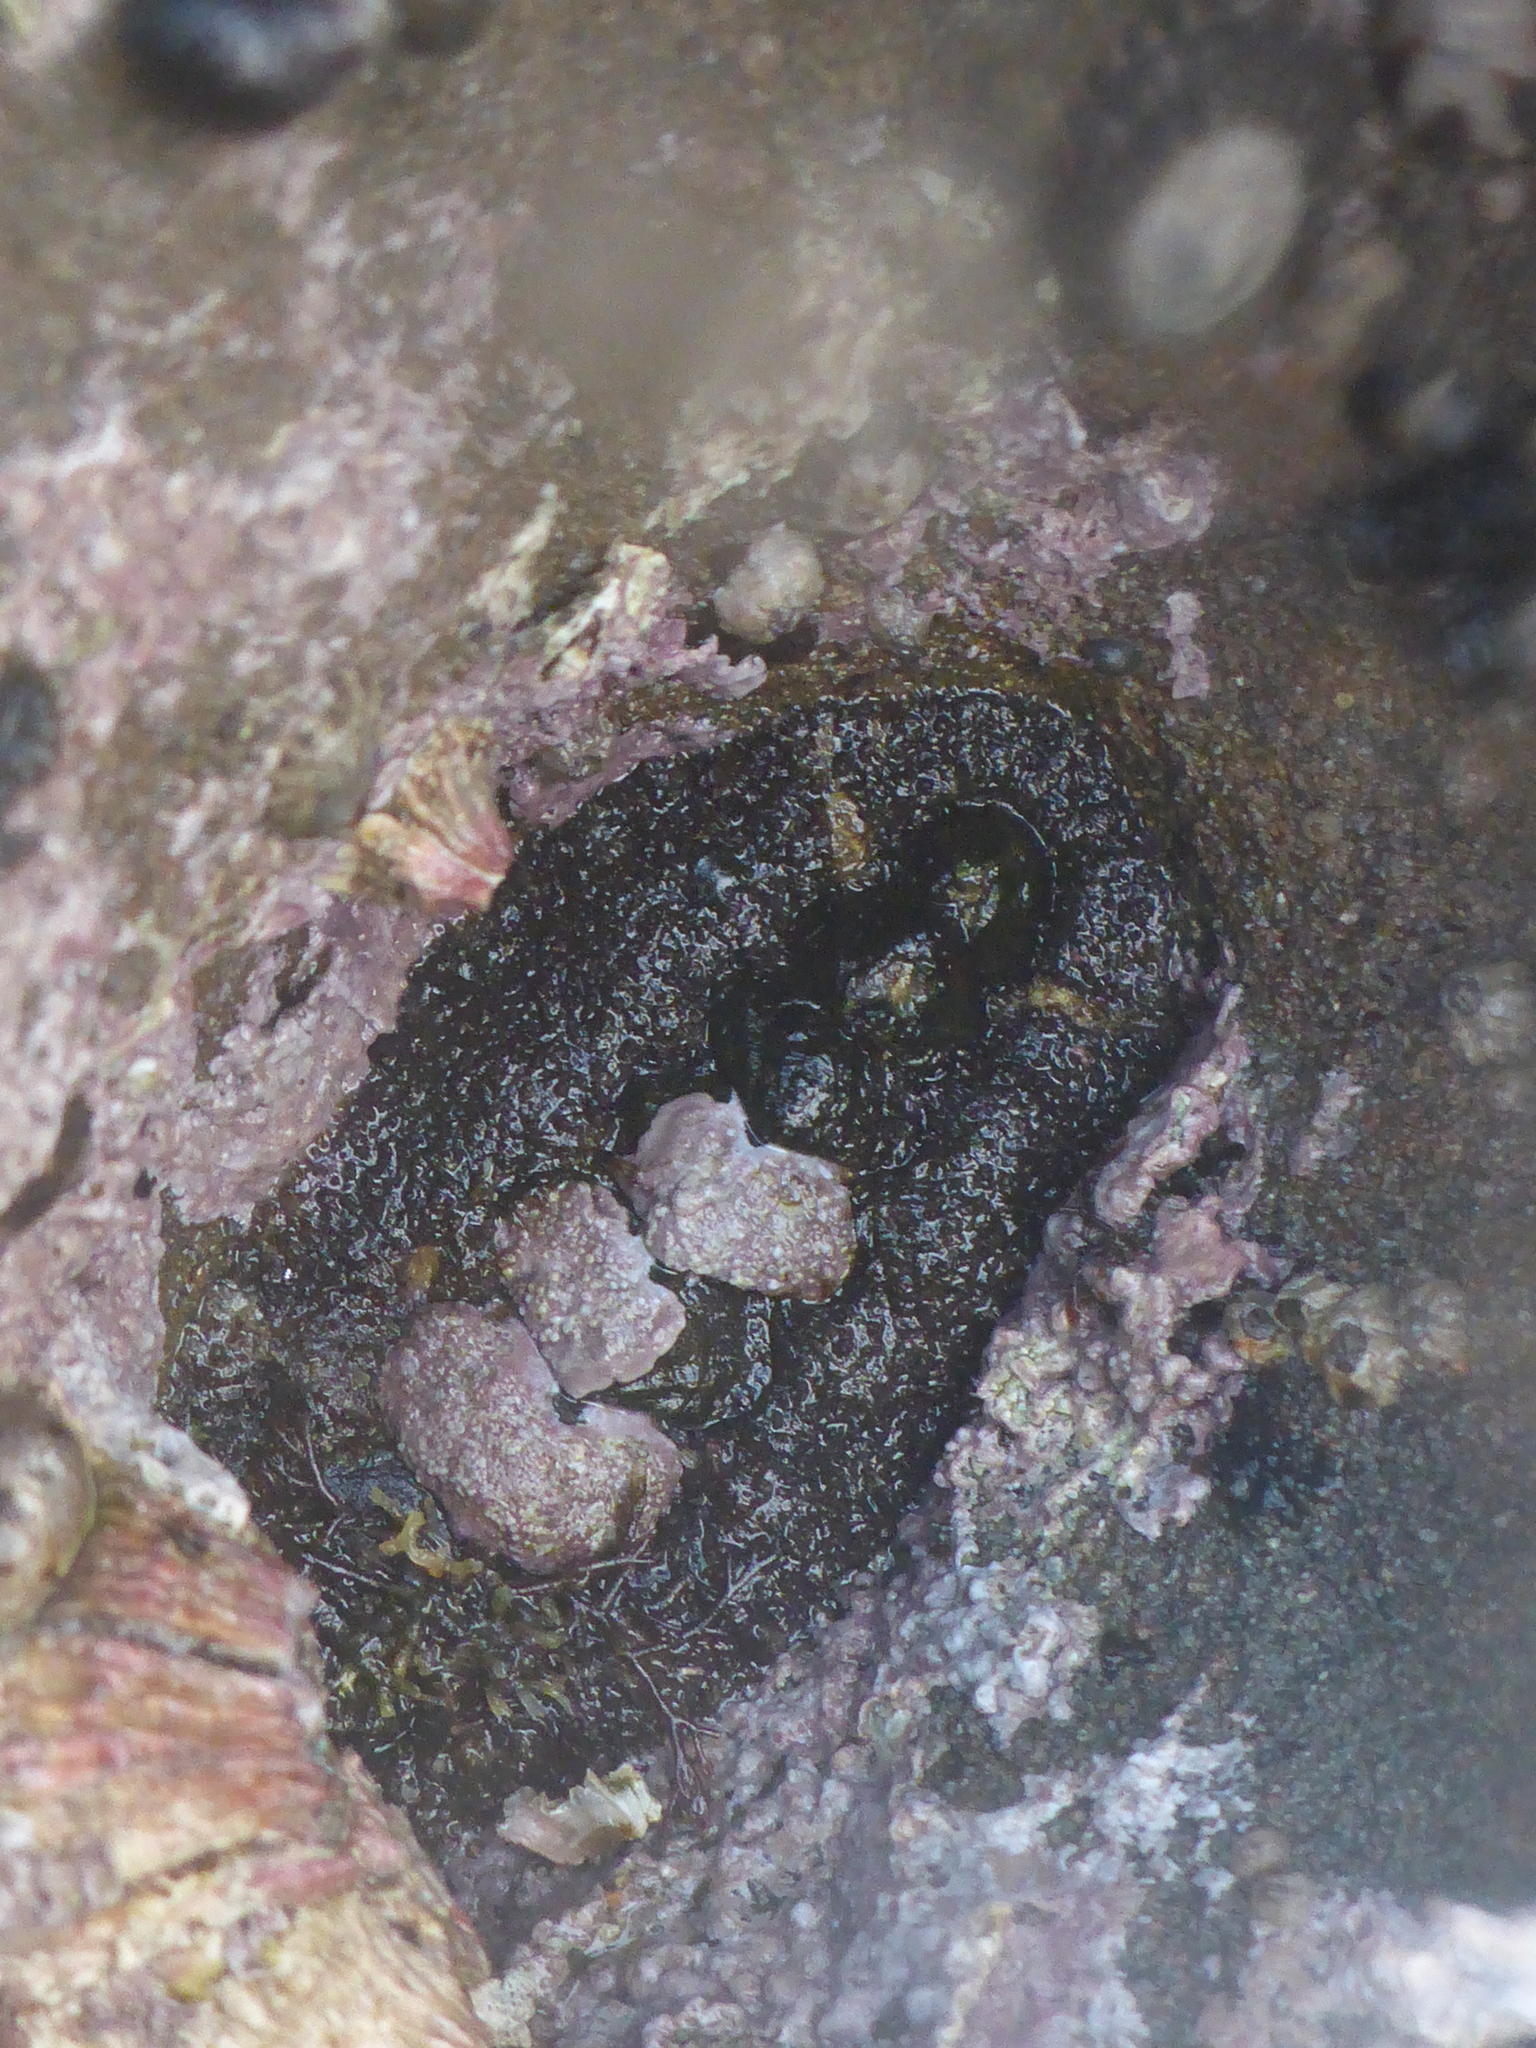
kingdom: Animalia
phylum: Mollusca
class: Polyplacophora
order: Chitonida
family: Tonicellidae
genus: Nuttallina
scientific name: Nuttallina californica
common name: California nuttall chiton
